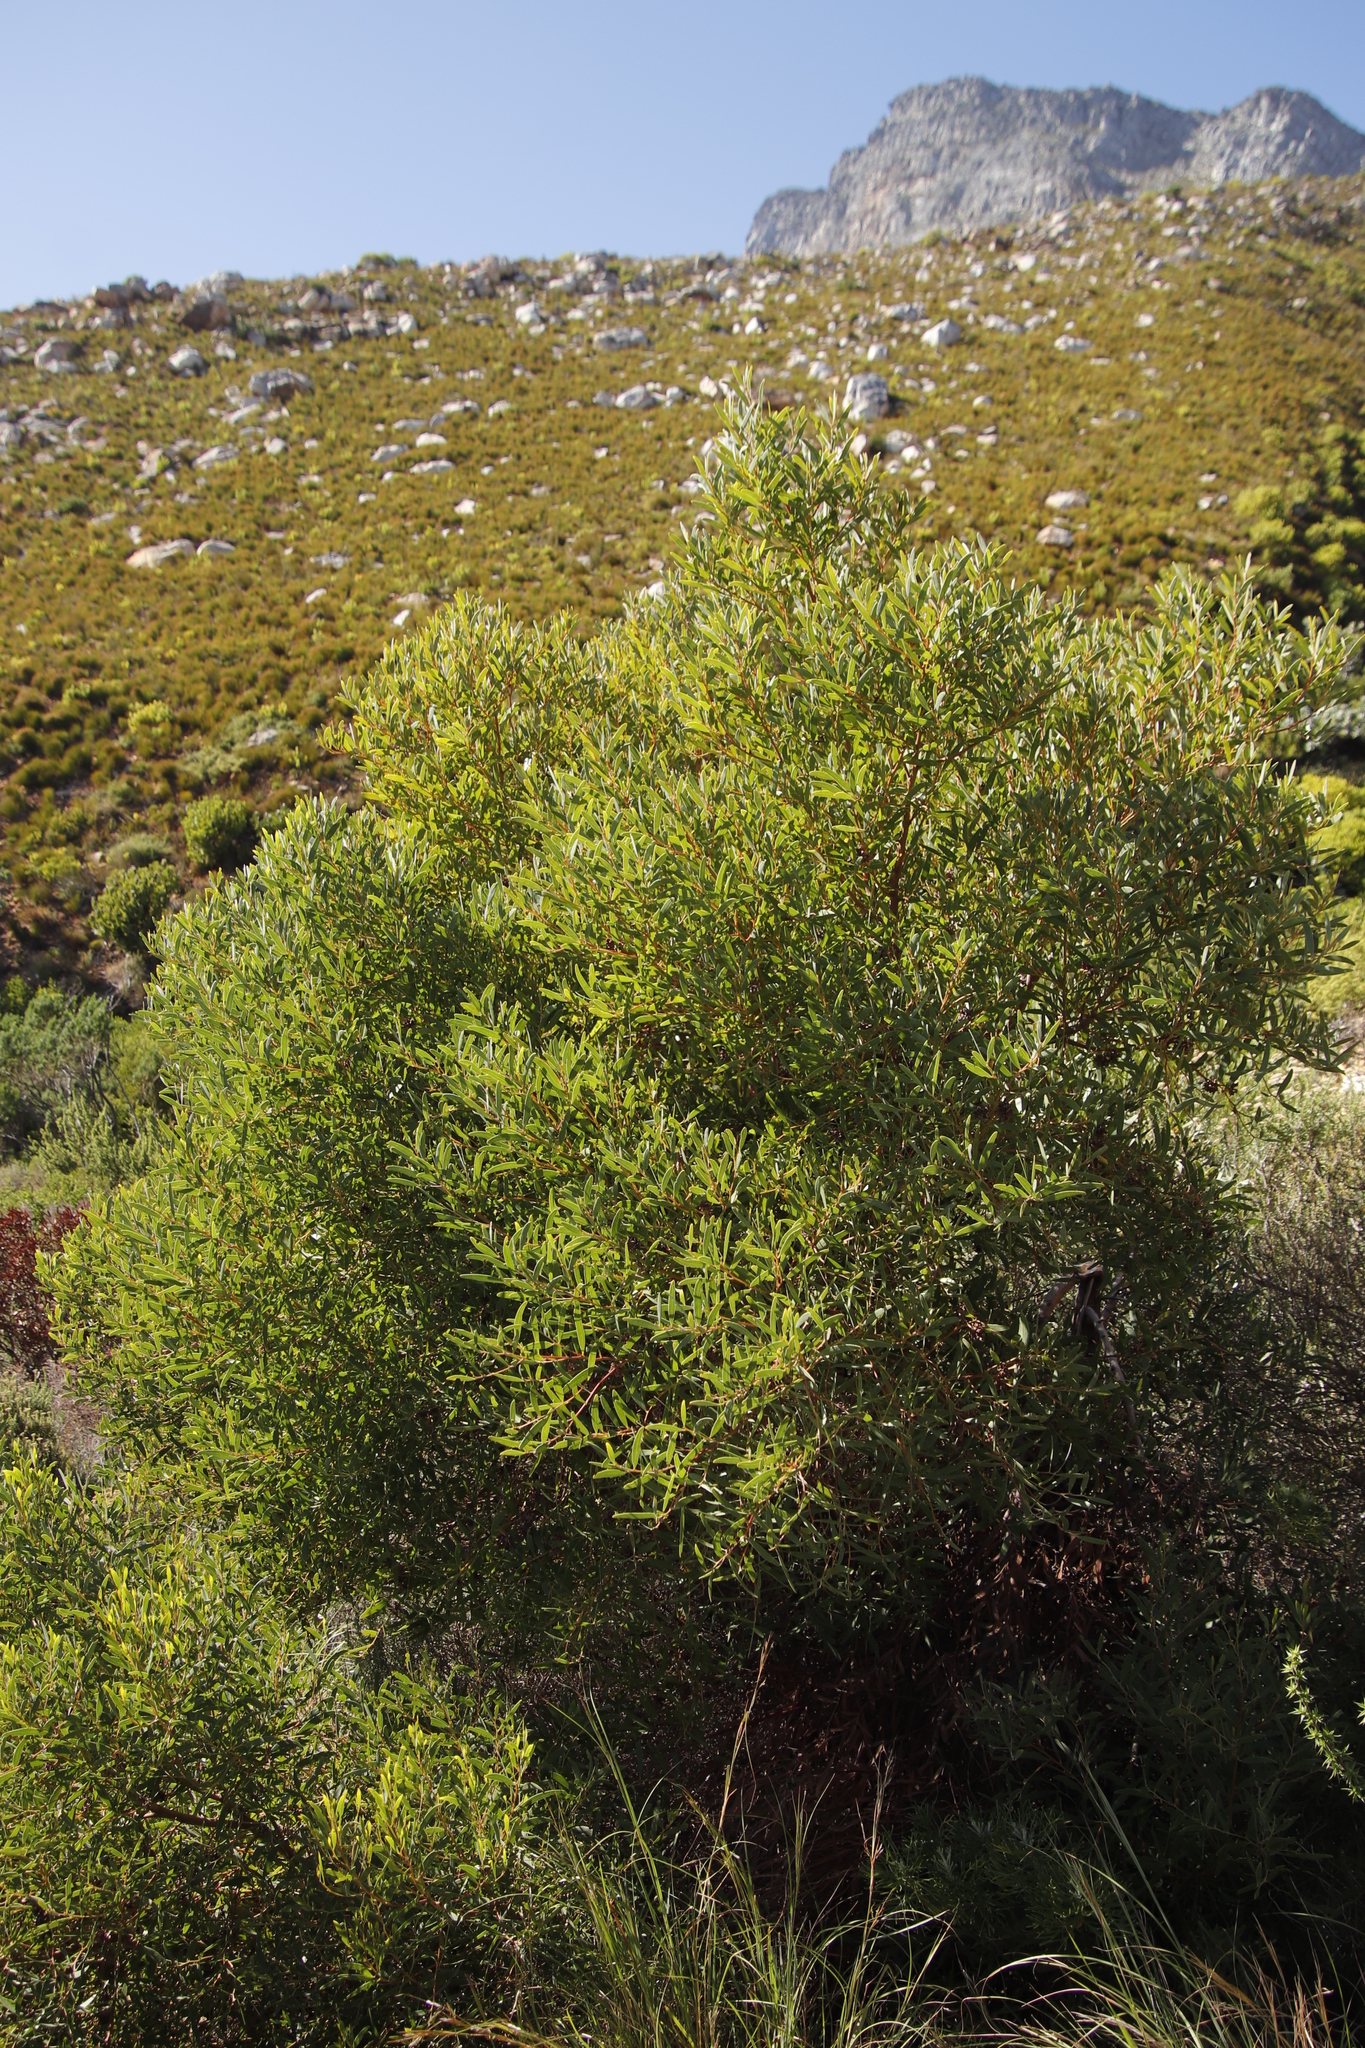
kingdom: Plantae
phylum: Tracheophyta
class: Magnoliopsida
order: Fabales
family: Fabaceae
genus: Acacia
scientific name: Acacia cyclops
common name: Coastal wattle
